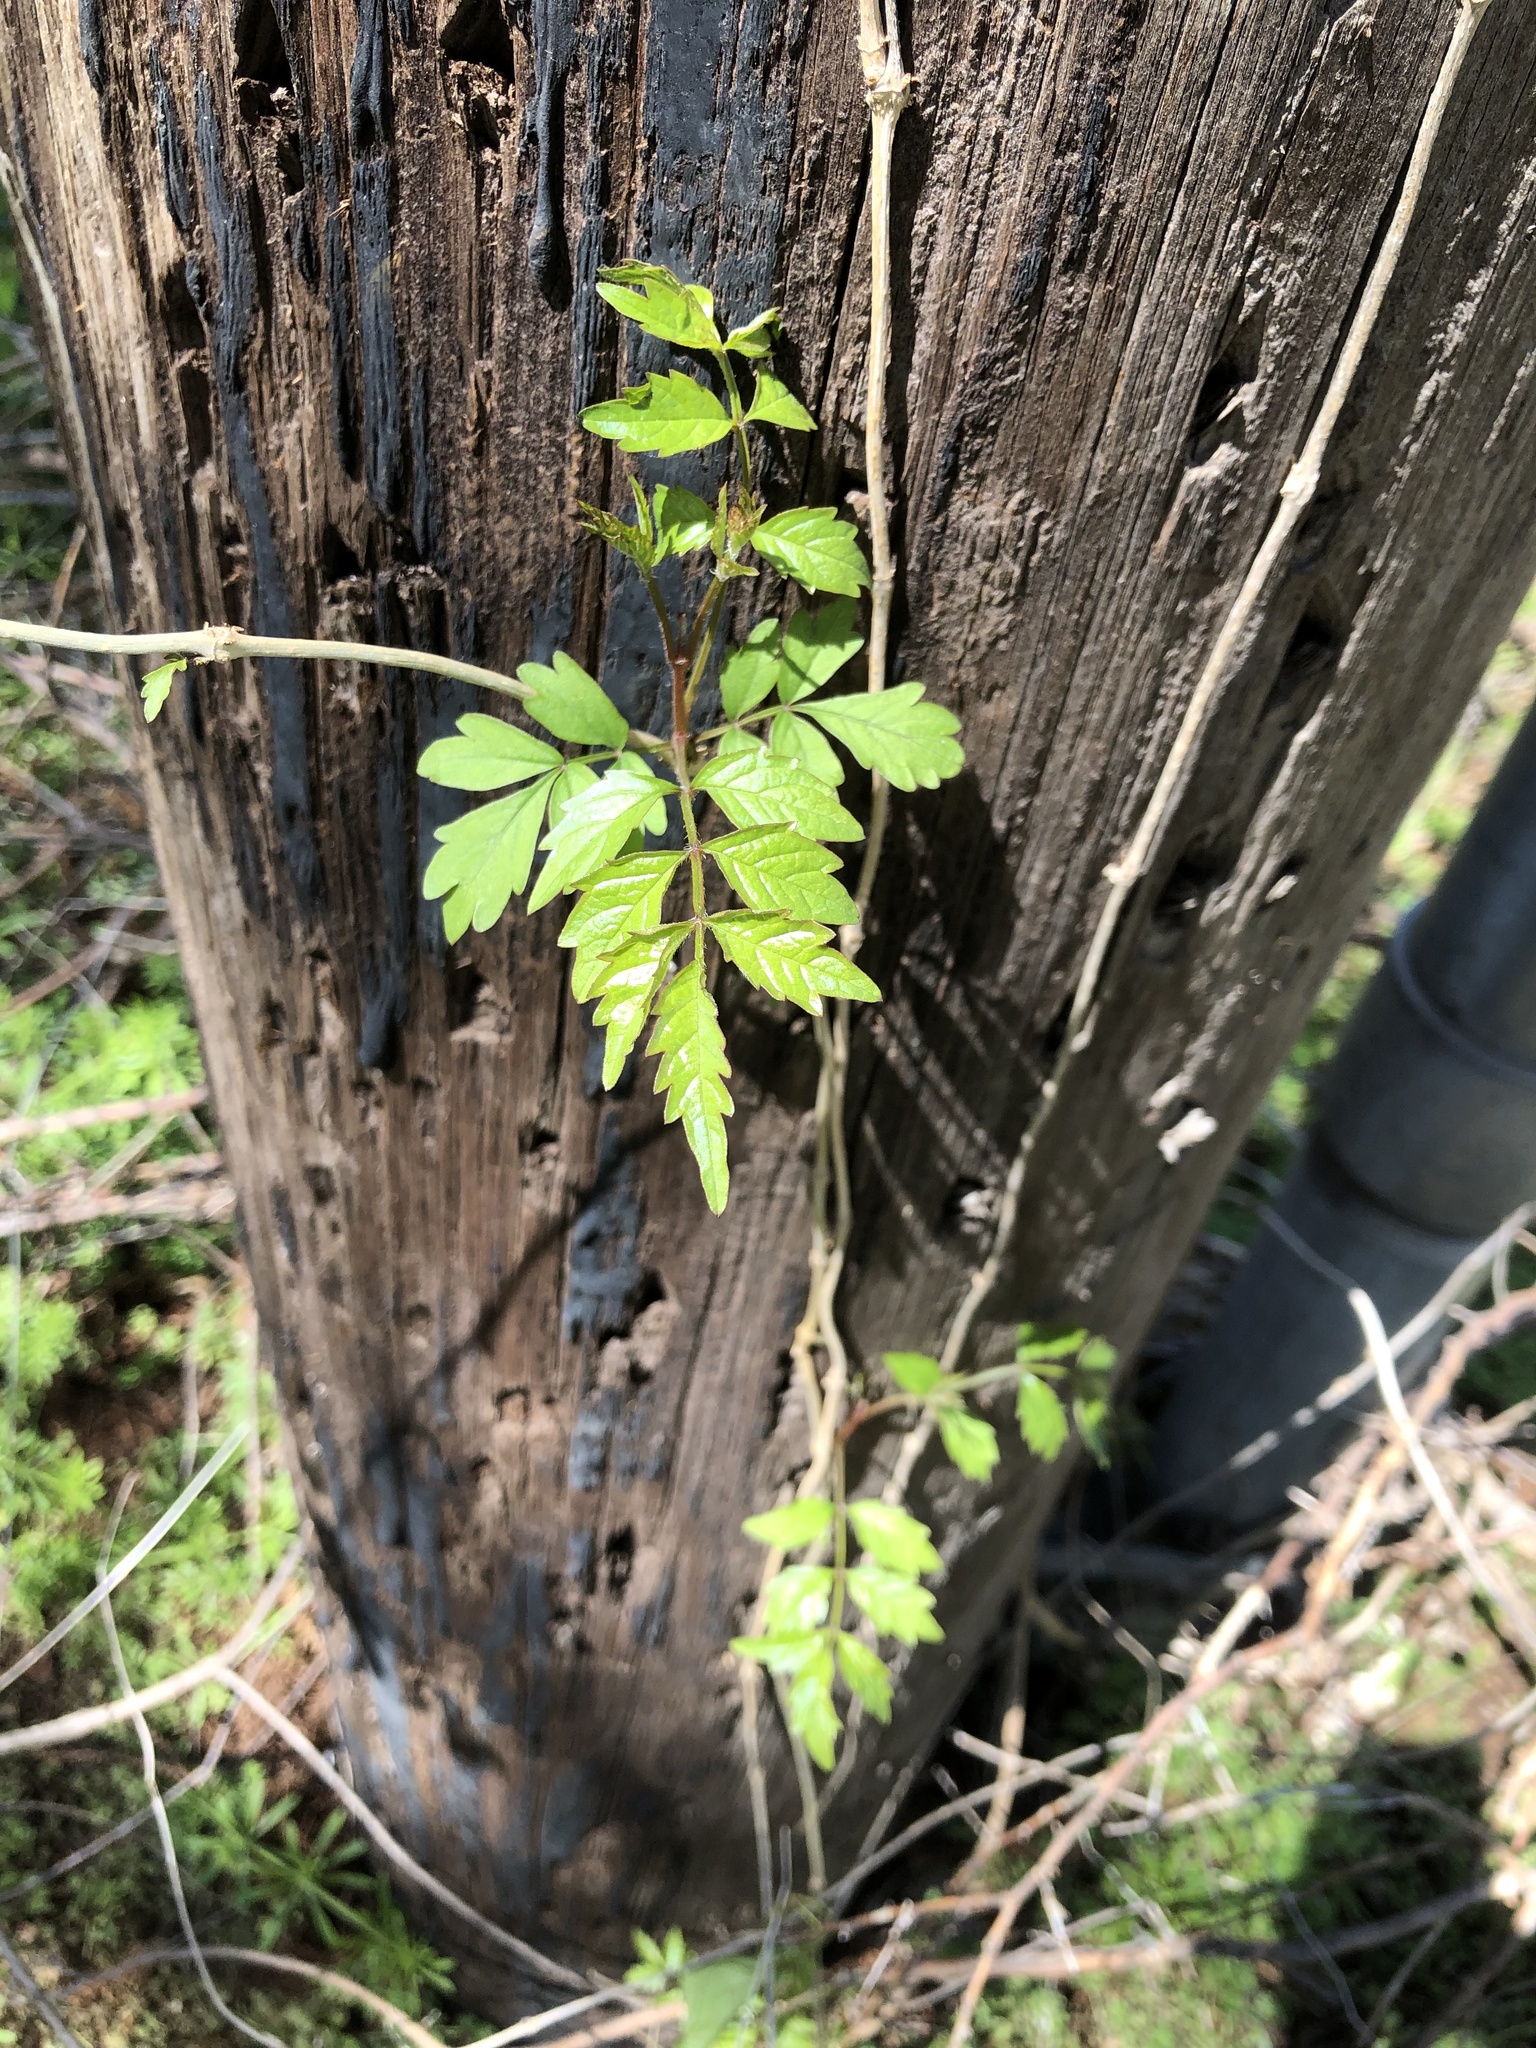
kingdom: Plantae
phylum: Tracheophyta
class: Magnoliopsida
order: Lamiales
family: Bignoniaceae
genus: Campsis
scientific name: Campsis radicans
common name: Trumpet-creeper
